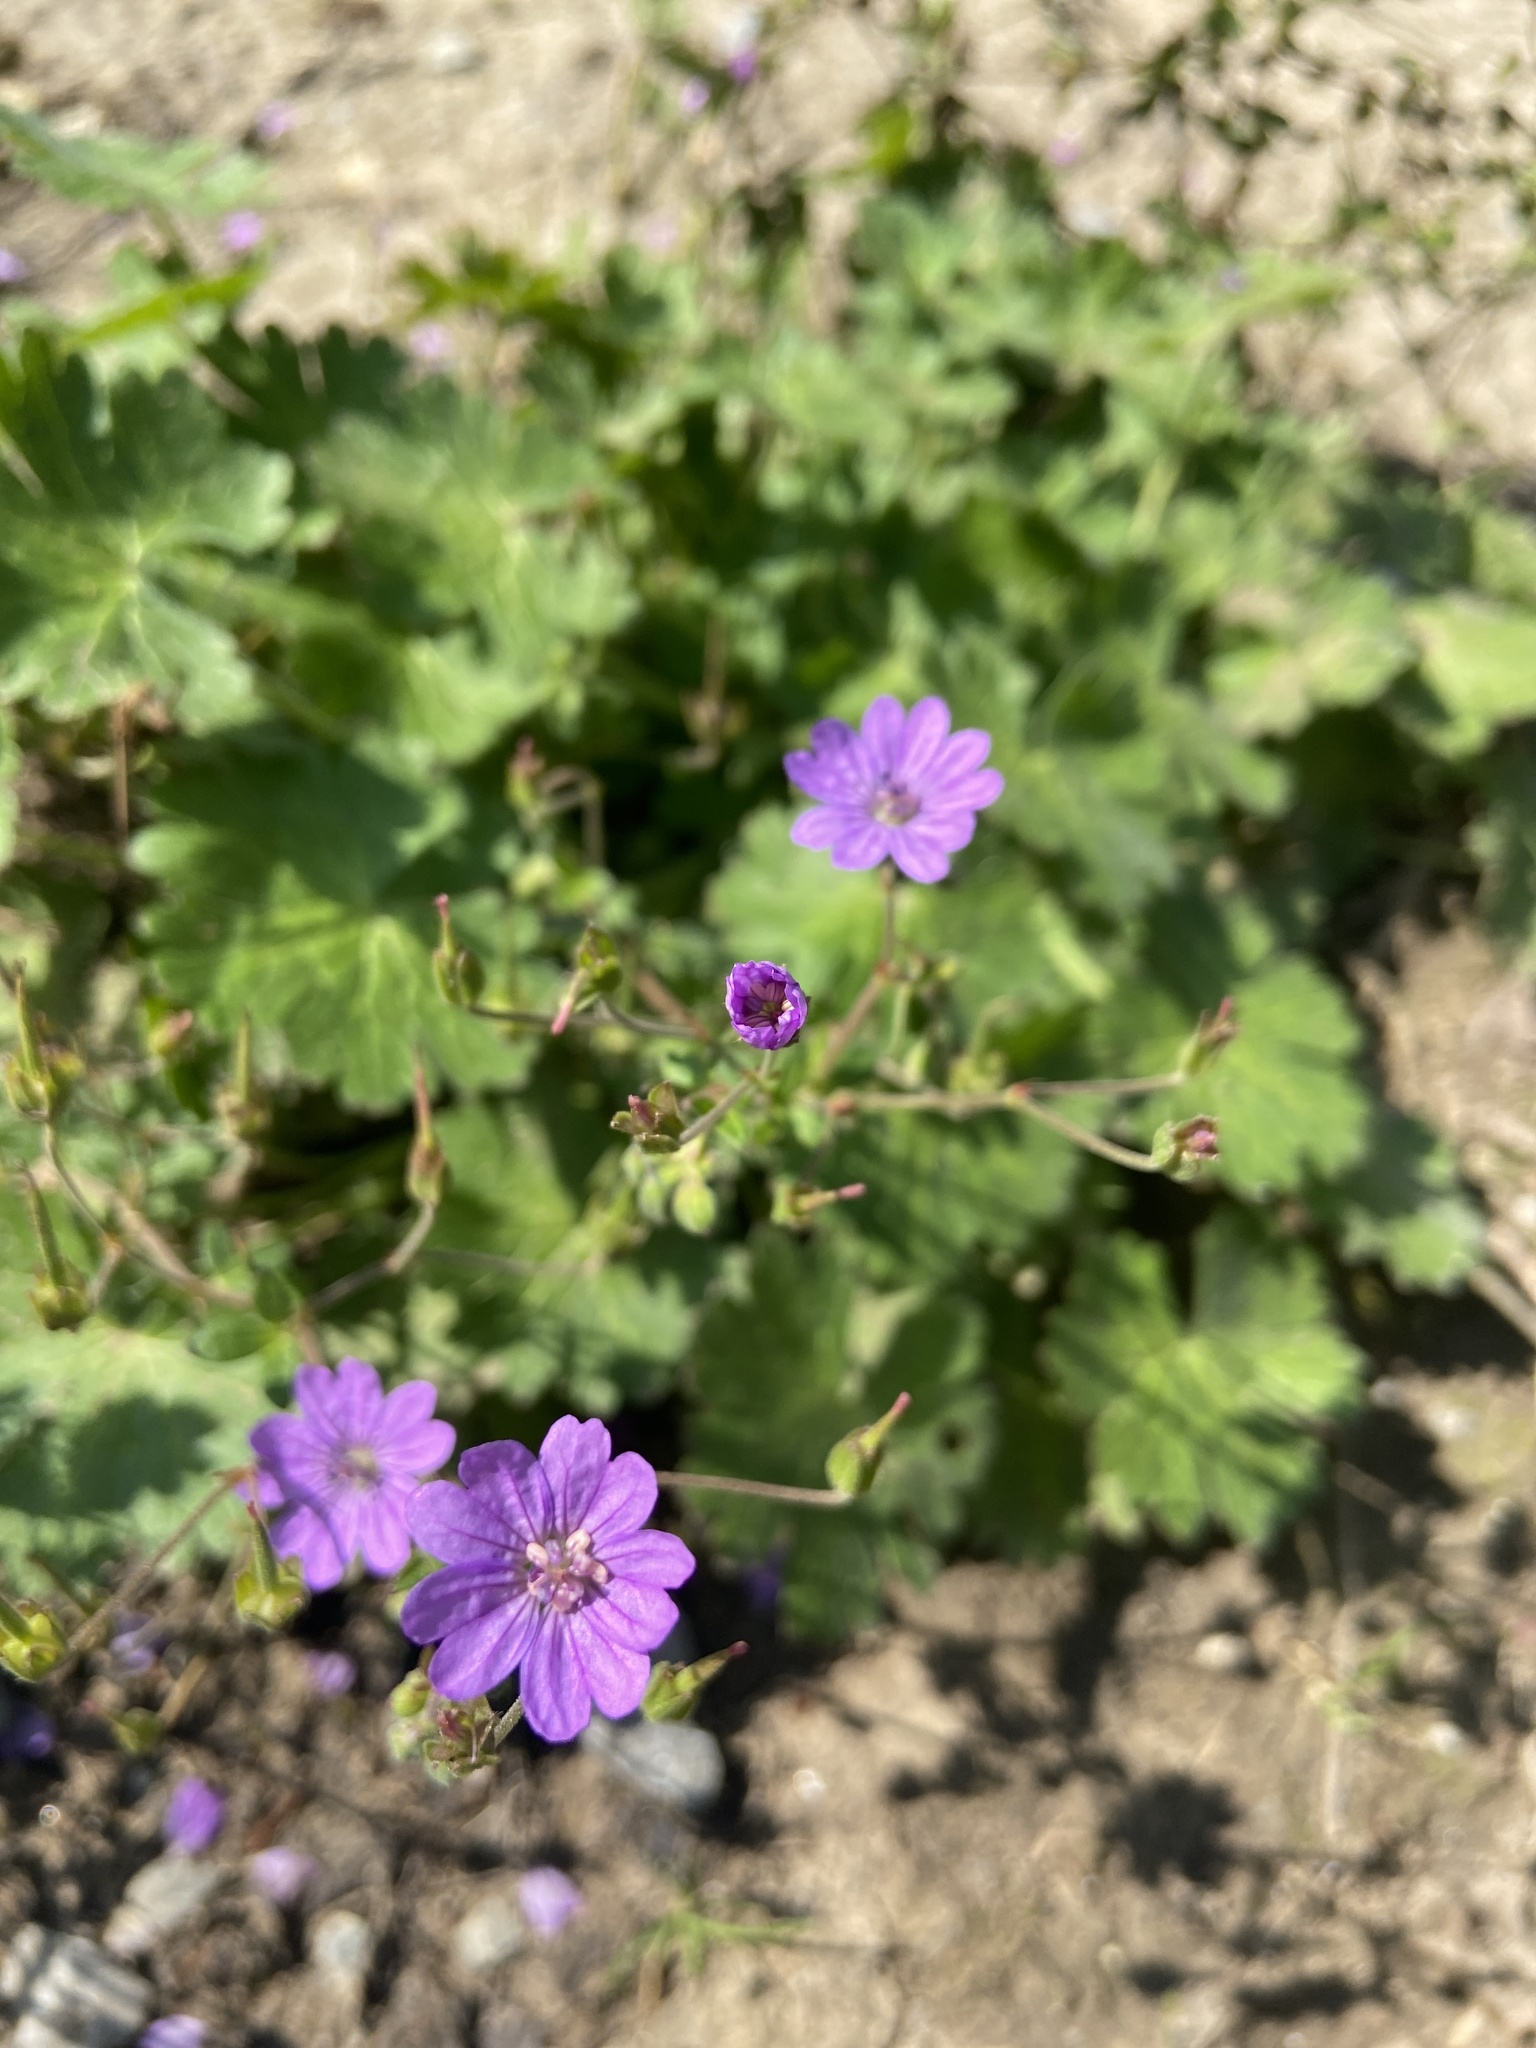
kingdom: Plantae
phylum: Tracheophyta
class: Magnoliopsida
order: Geraniales
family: Geraniaceae
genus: Geranium
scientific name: Geranium pyrenaicum
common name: Hedgerow crane's-bill
